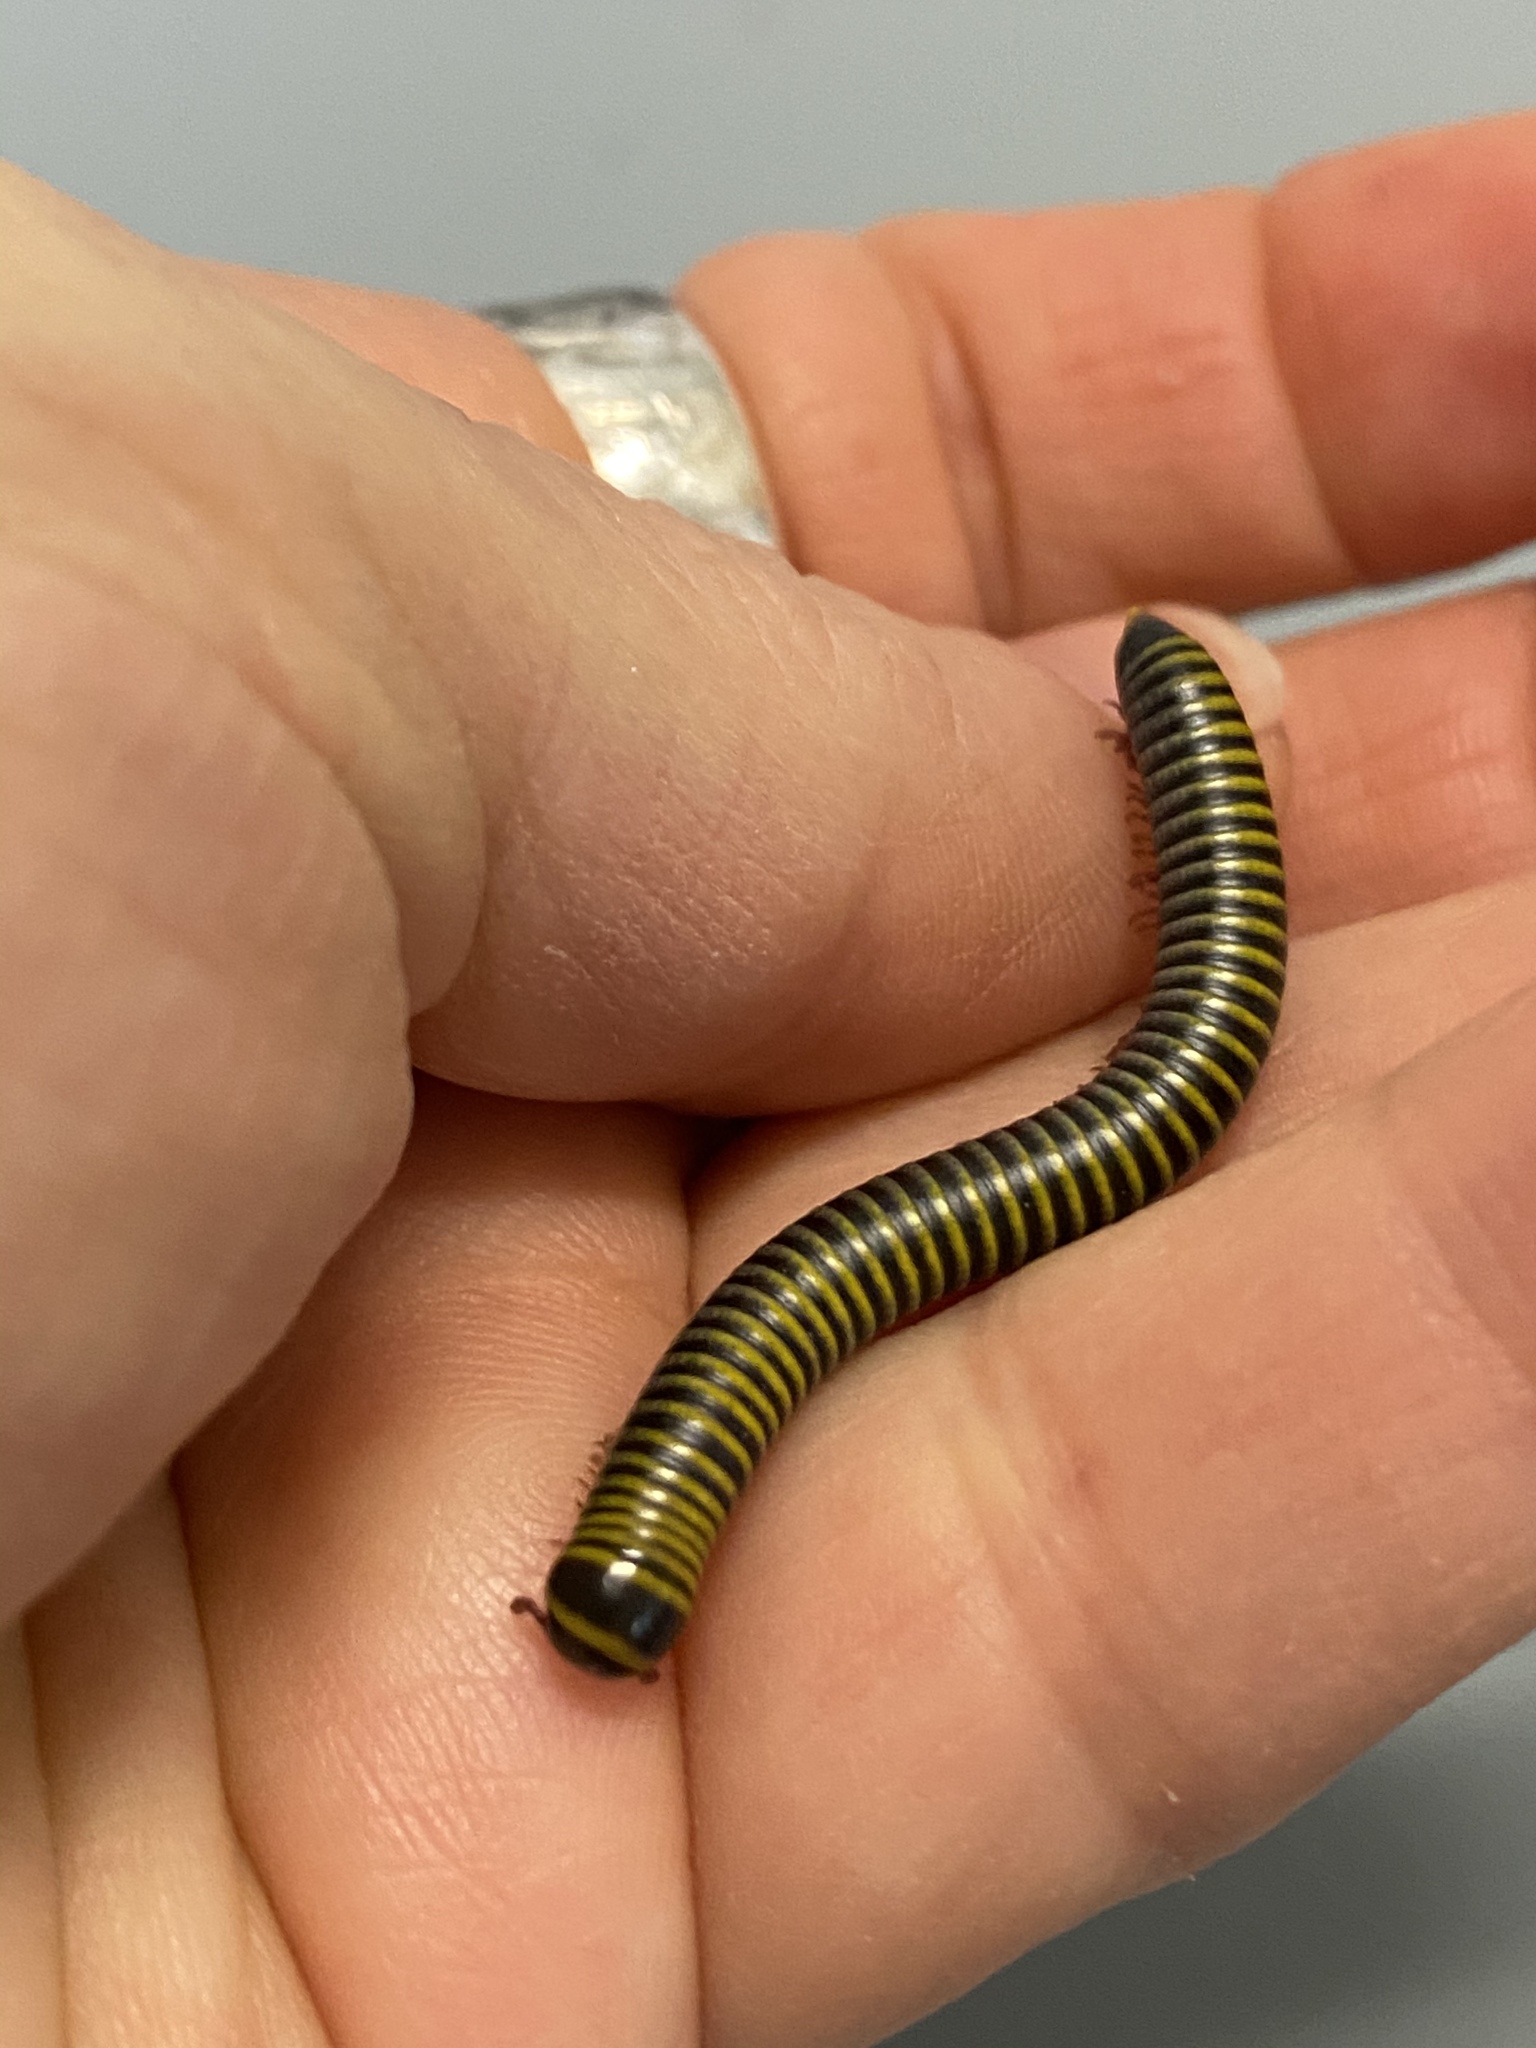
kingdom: Animalia
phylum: Arthropoda
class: Diplopoda
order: Spirobolida
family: Rhinocricidae
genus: Anadenobolus
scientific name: Anadenobolus monilicornis
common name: Caribbean millipede
